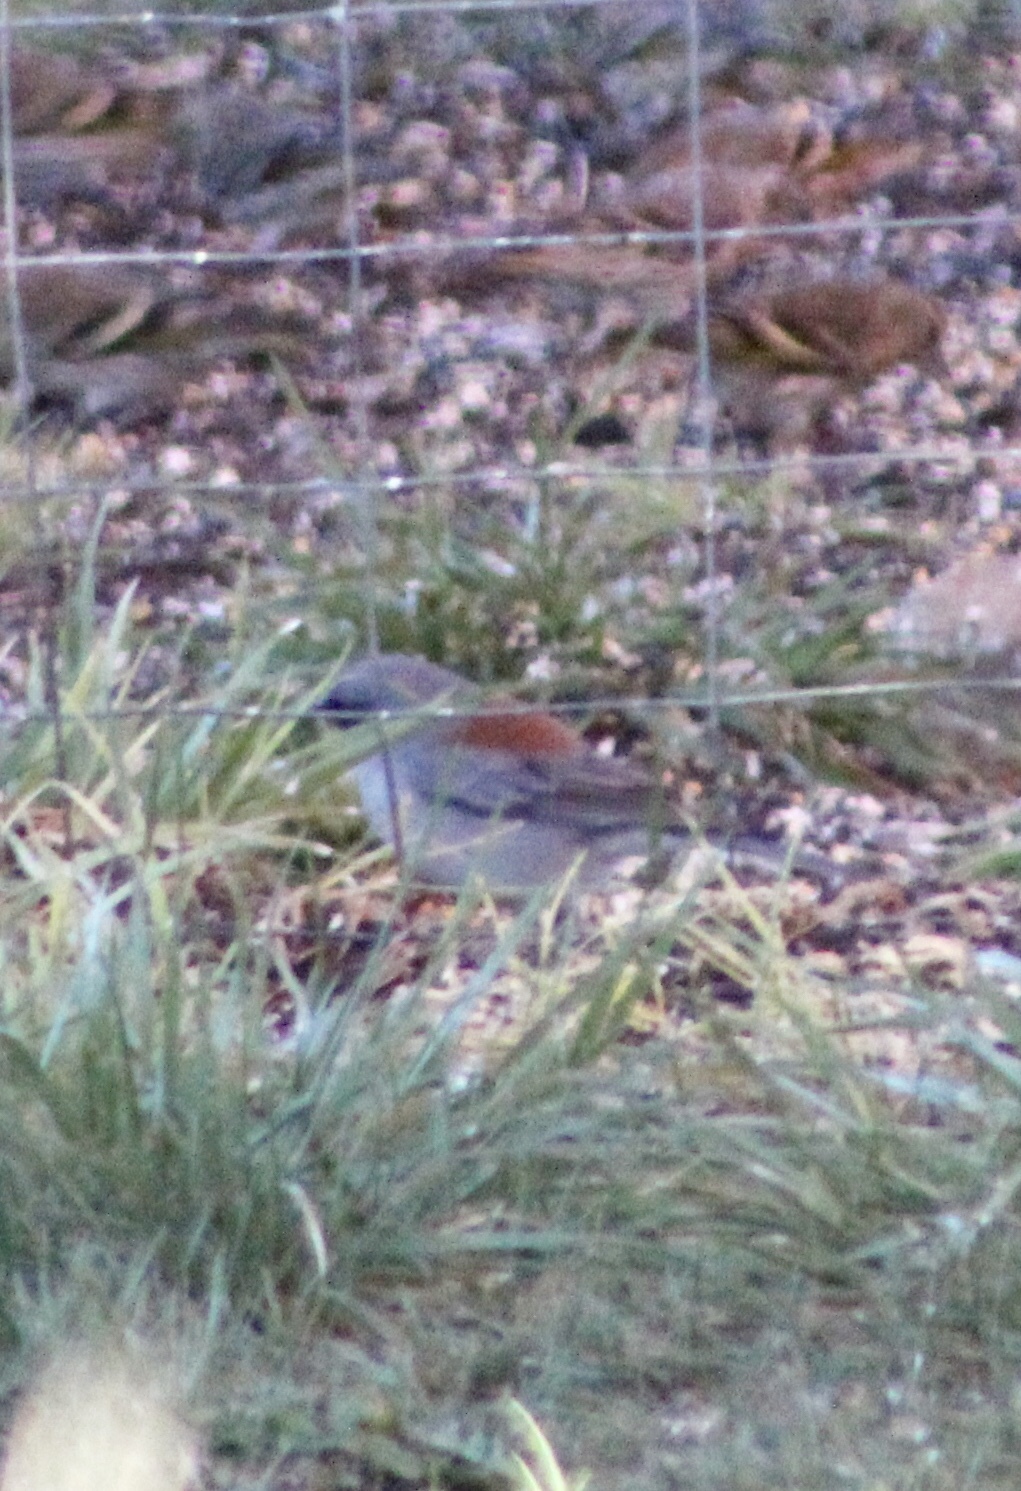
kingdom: Animalia
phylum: Chordata
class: Aves
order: Passeriformes
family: Passerellidae
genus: Junco
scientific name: Junco hyemalis
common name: Dark-eyed junco
